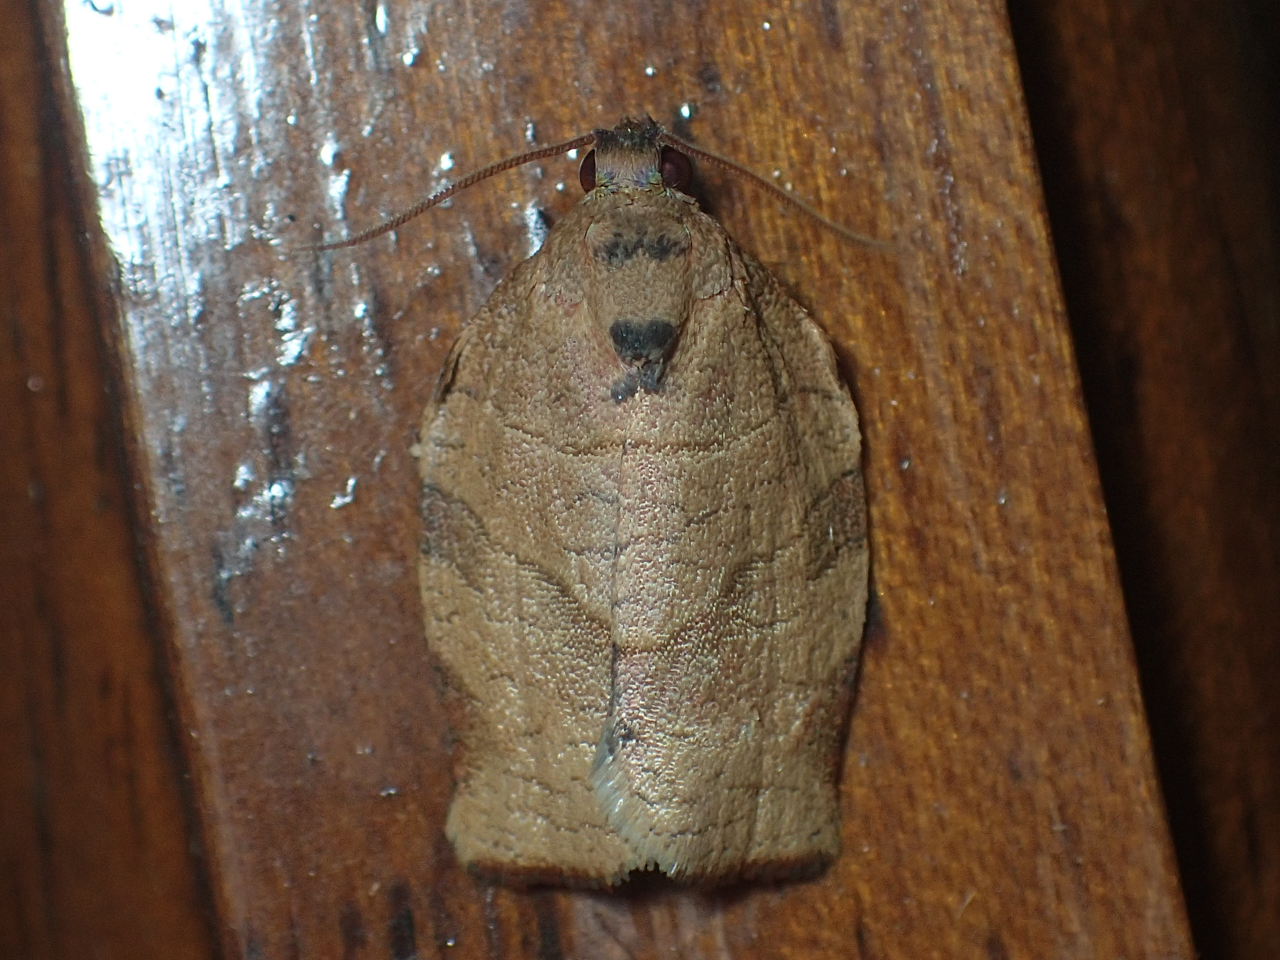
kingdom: Animalia
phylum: Arthropoda
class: Insecta
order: Lepidoptera
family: Tortricidae
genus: Choristoneura
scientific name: Choristoneura rosaceana
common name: Oblique-banded leafroller moth
